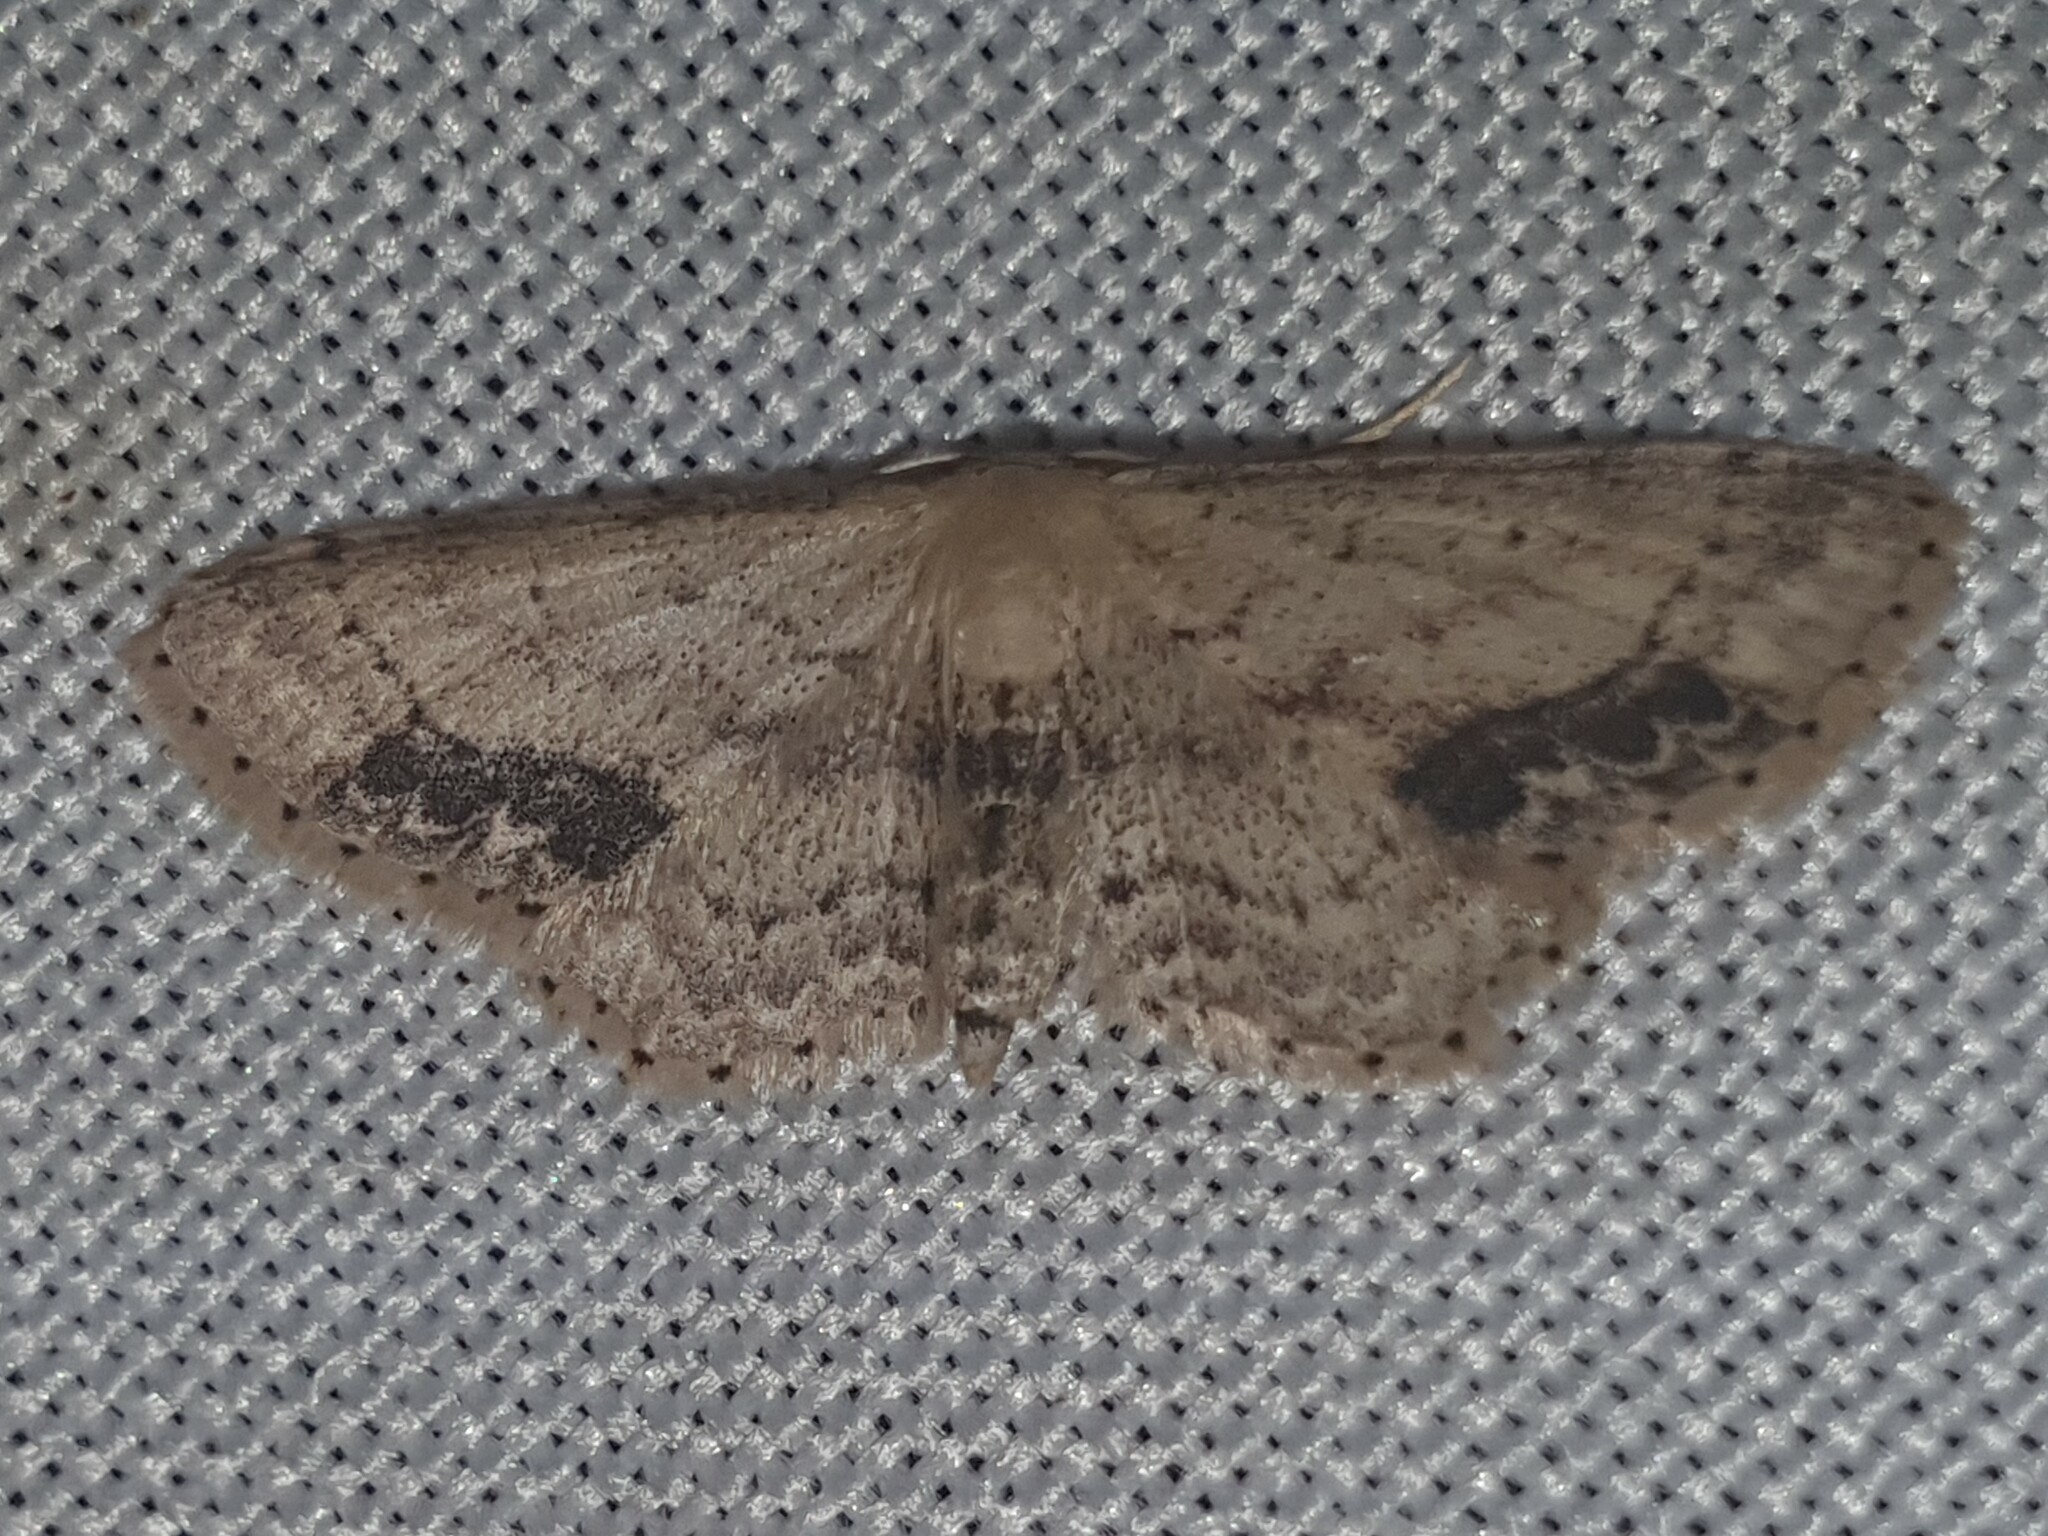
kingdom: Animalia
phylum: Arthropoda
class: Insecta
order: Lepidoptera
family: Geometridae
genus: Idaea
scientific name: Idaea dimidiata
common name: Single-dotted wave
